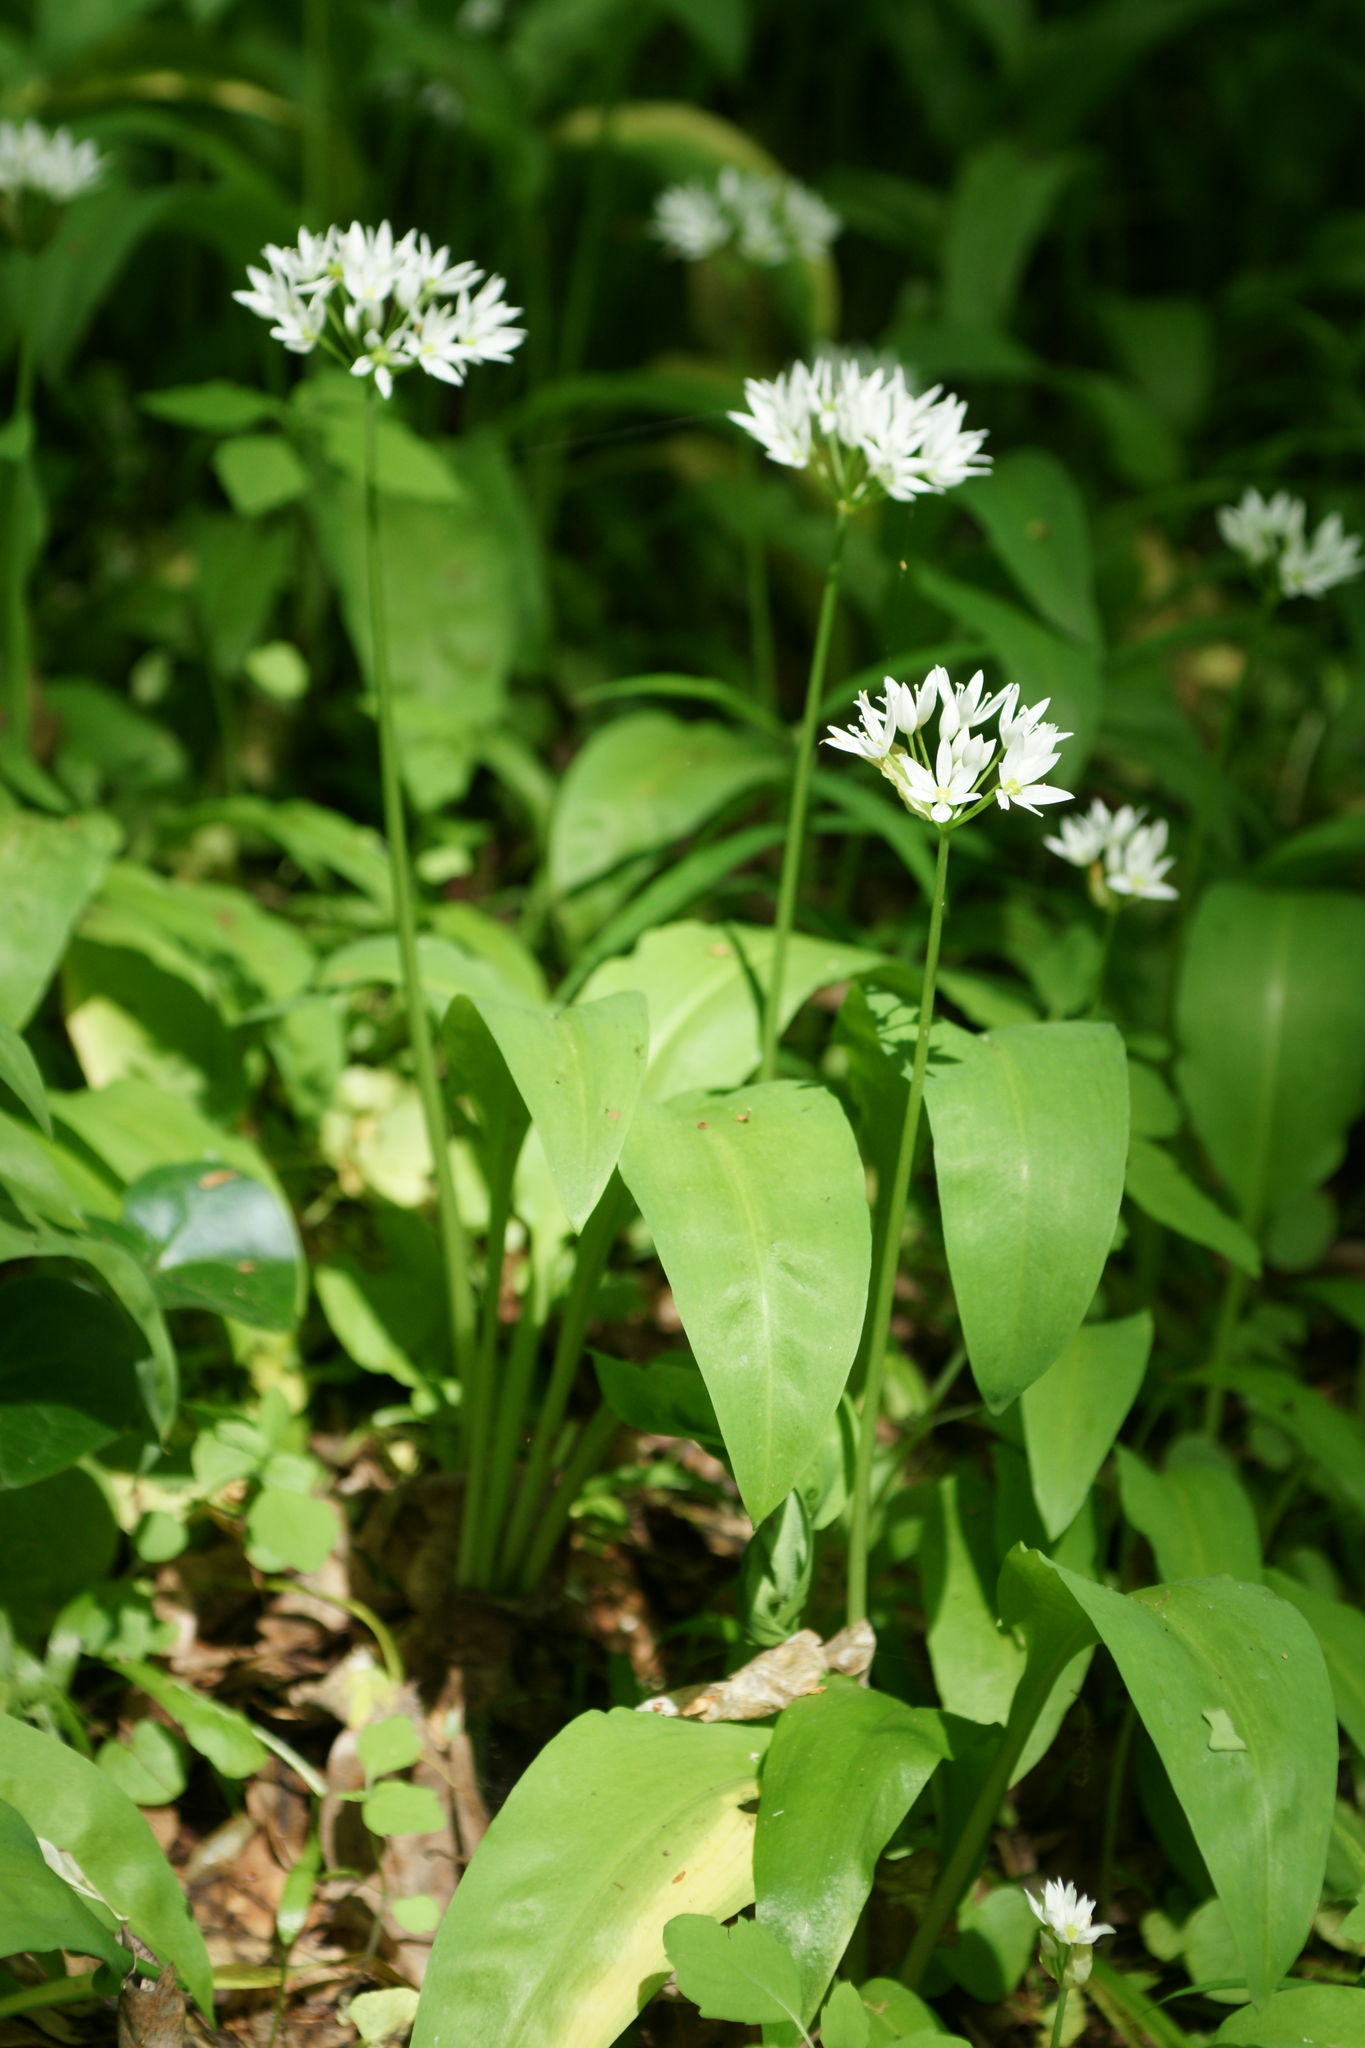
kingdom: Plantae
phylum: Tracheophyta
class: Liliopsida
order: Asparagales
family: Amaryllidaceae
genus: Allium
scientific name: Allium ursinum
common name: Ramsons
